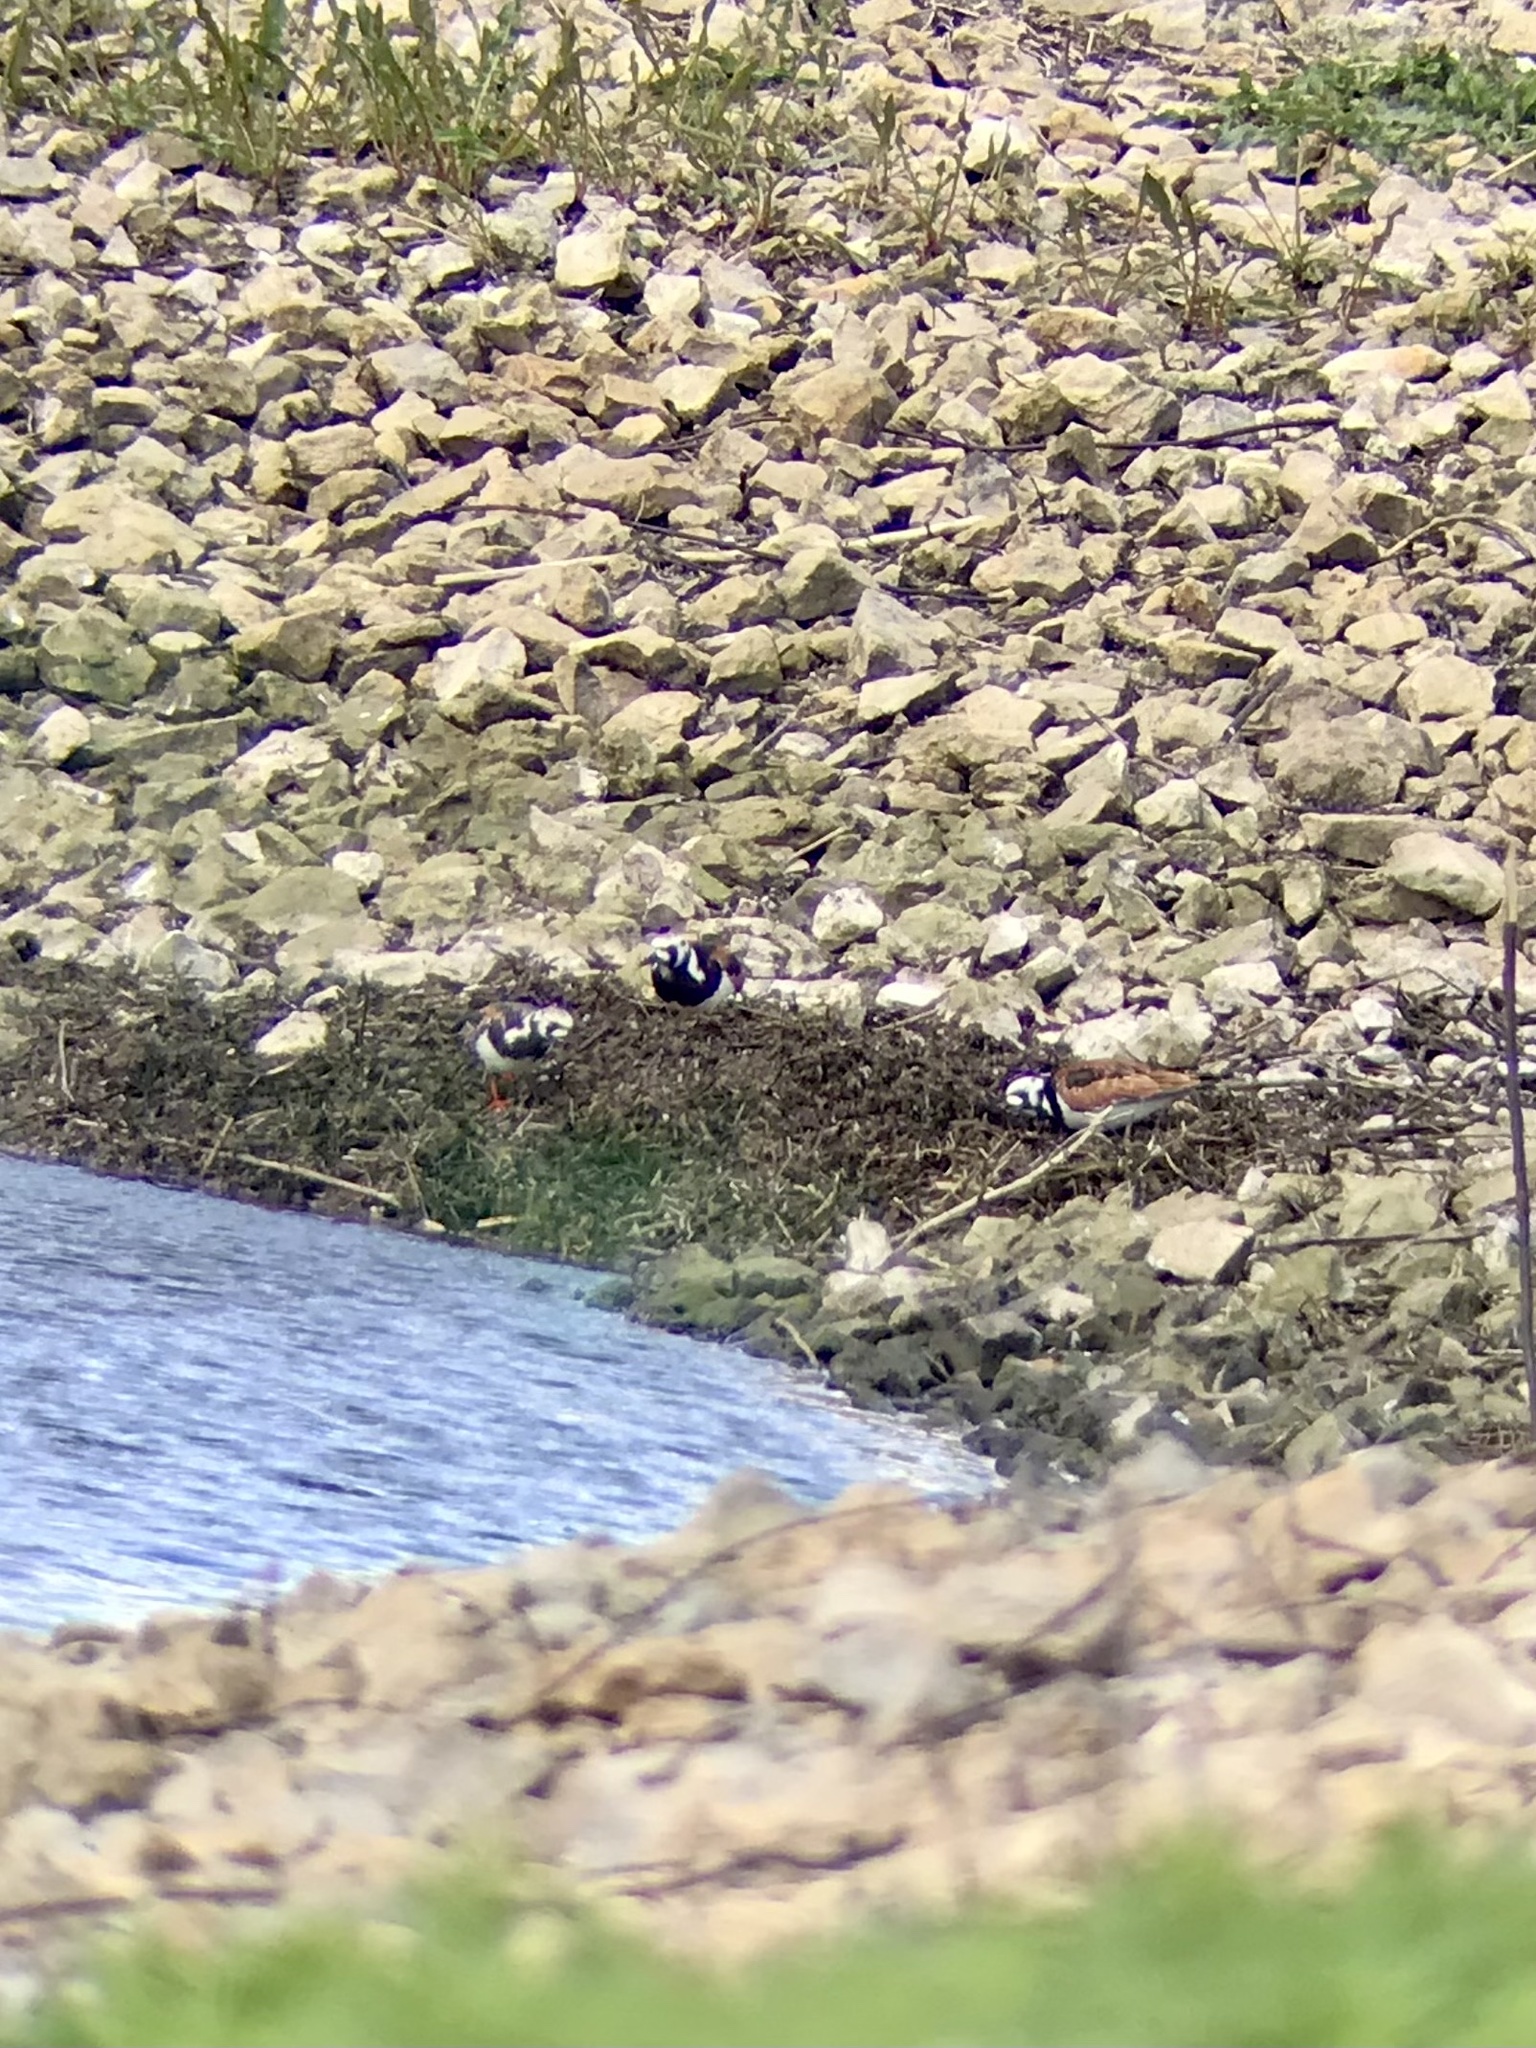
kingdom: Animalia
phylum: Chordata
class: Aves
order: Charadriiformes
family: Scolopacidae
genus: Arenaria
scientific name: Arenaria interpres
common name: Ruddy turnstone
